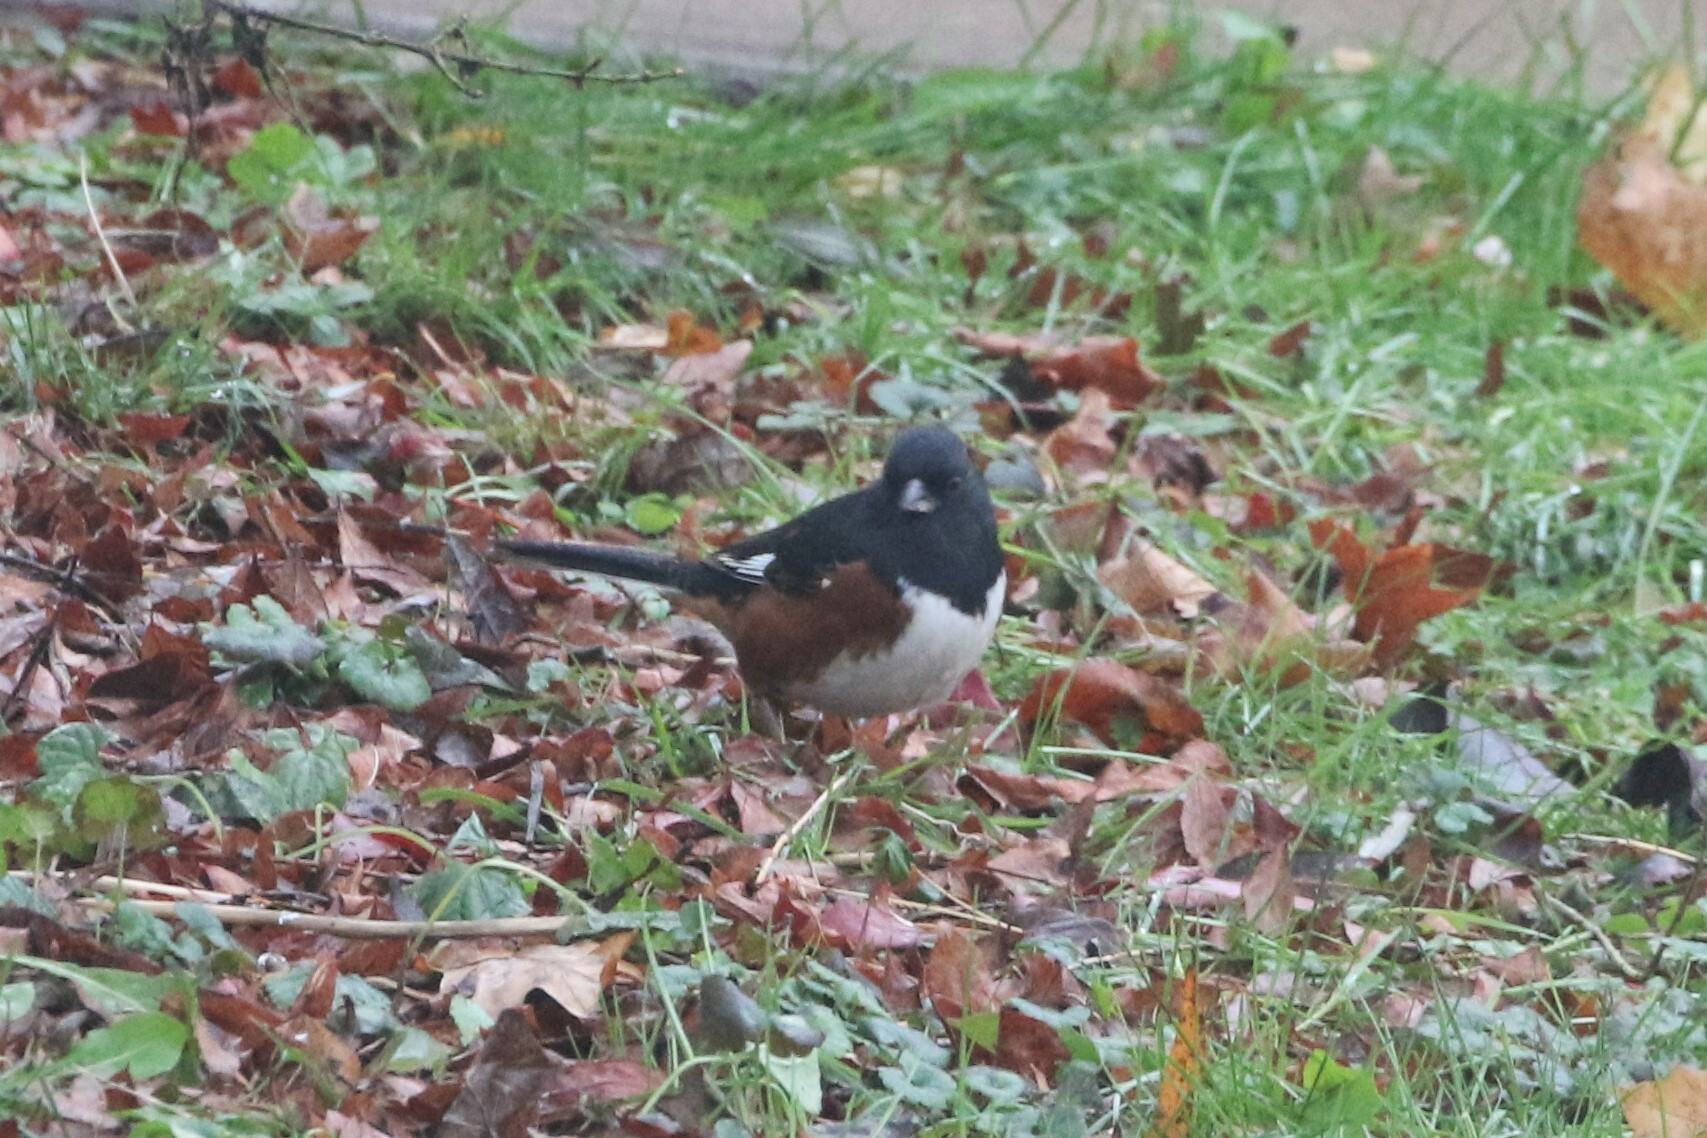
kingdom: Animalia
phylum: Chordata
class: Aves
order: Passeriformes
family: Passerellidae
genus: Pipilo
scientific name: Pipilo erythrophthalmus
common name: Eastern towhee
